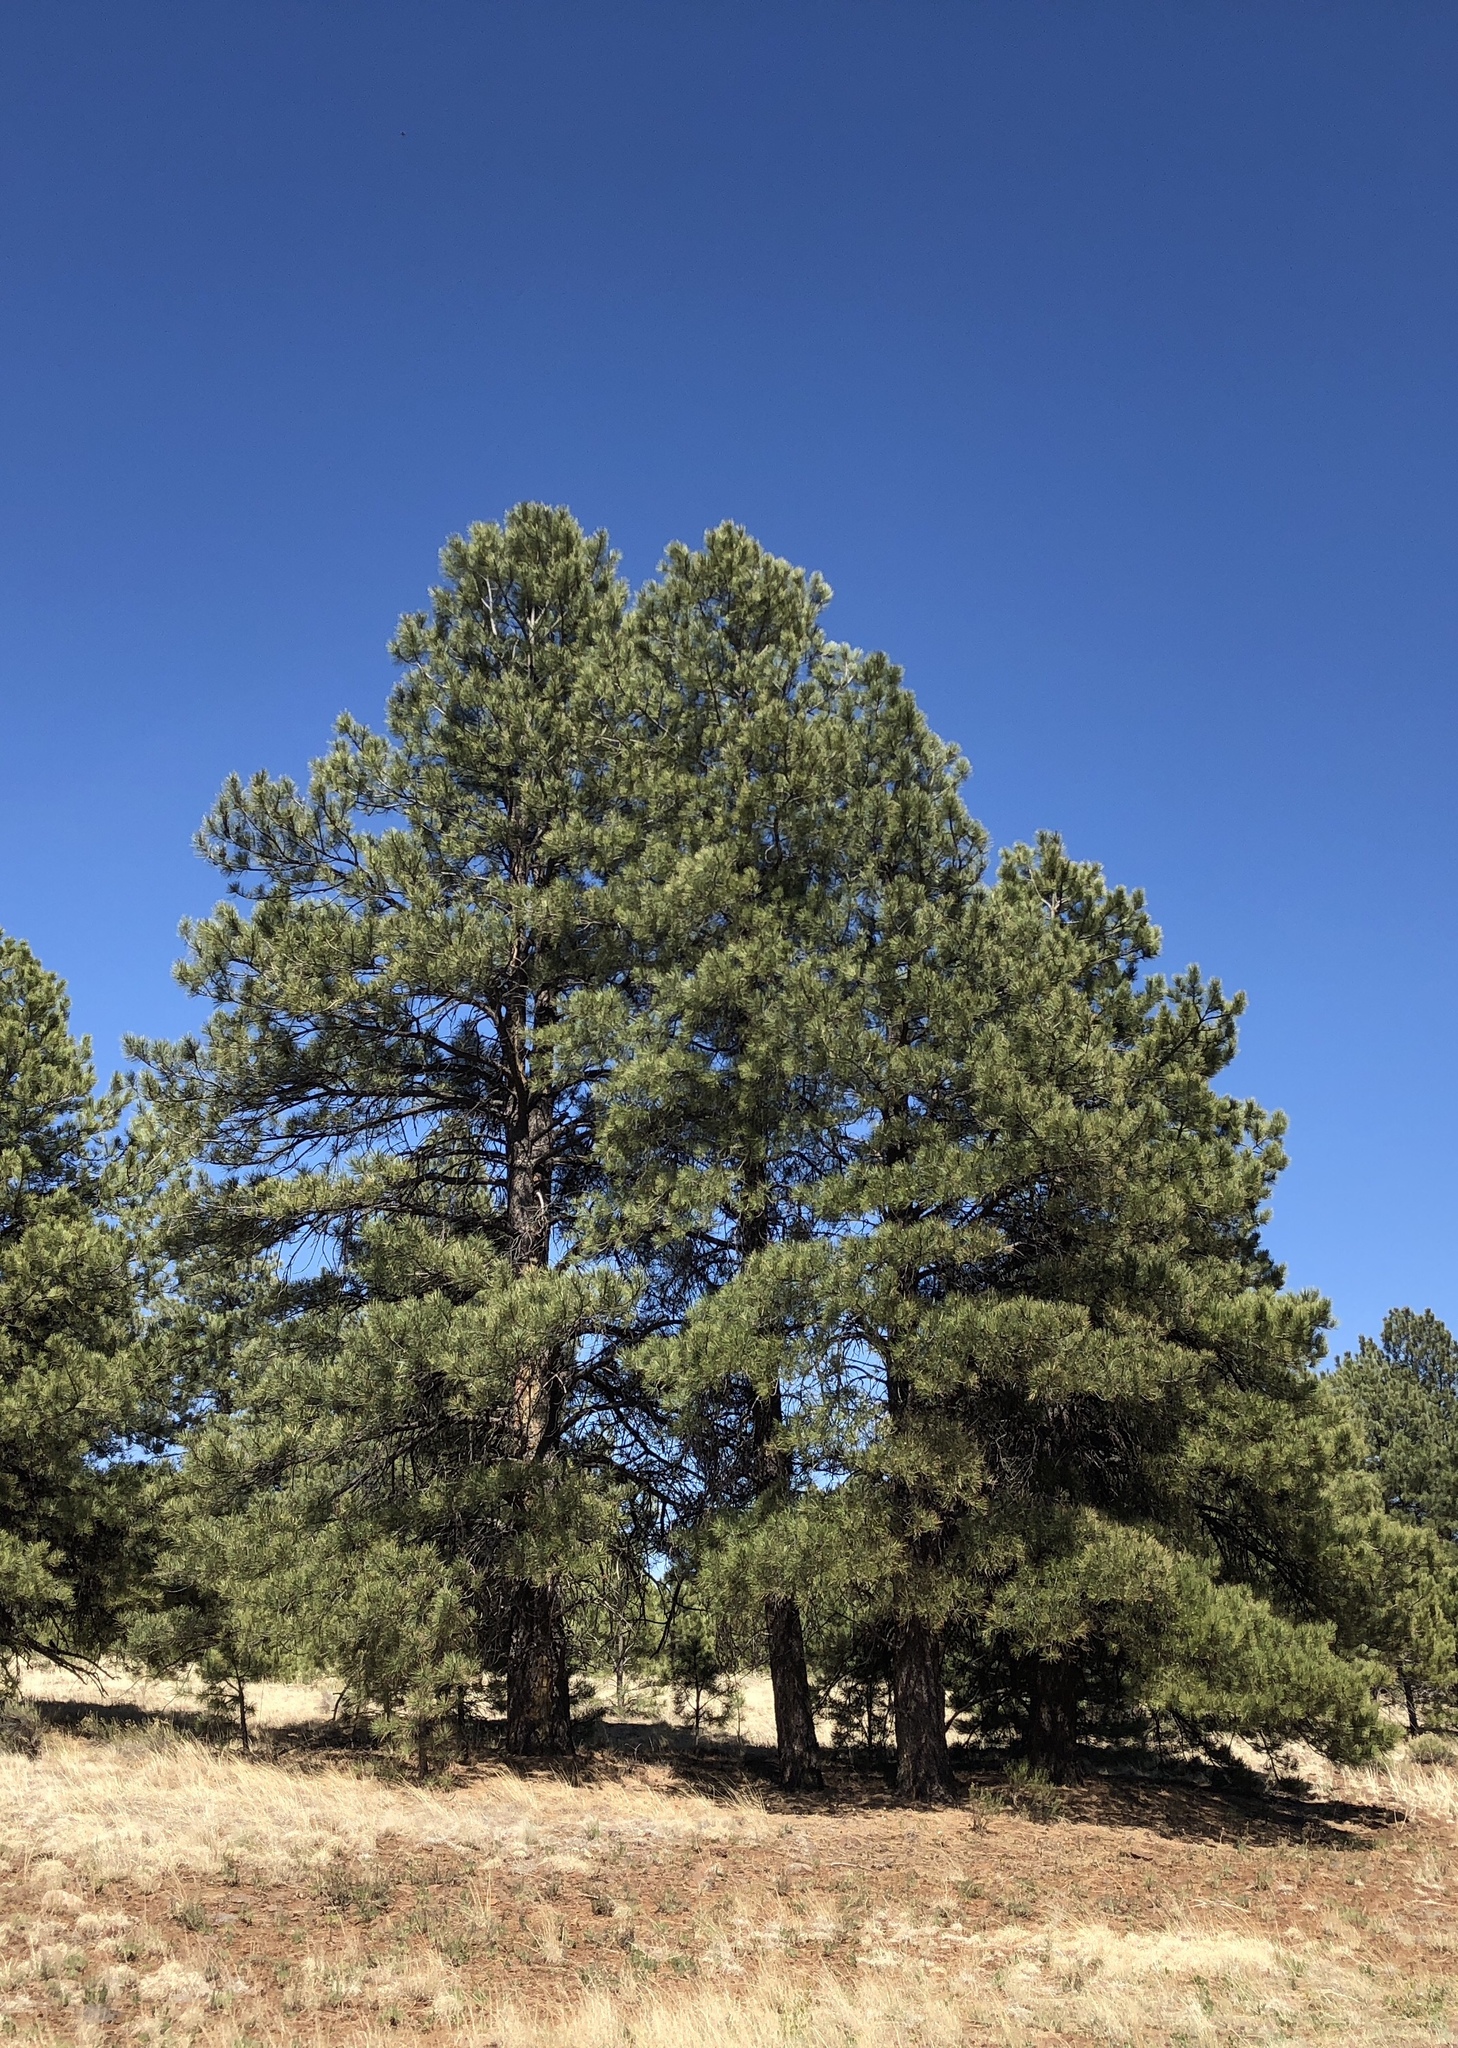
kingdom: Plantae
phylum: Tracheophyta
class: Pinopsida
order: Pinales
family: Pinaceae
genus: Pinus
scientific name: Pinus ponderosa
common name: Western yellow-pine
